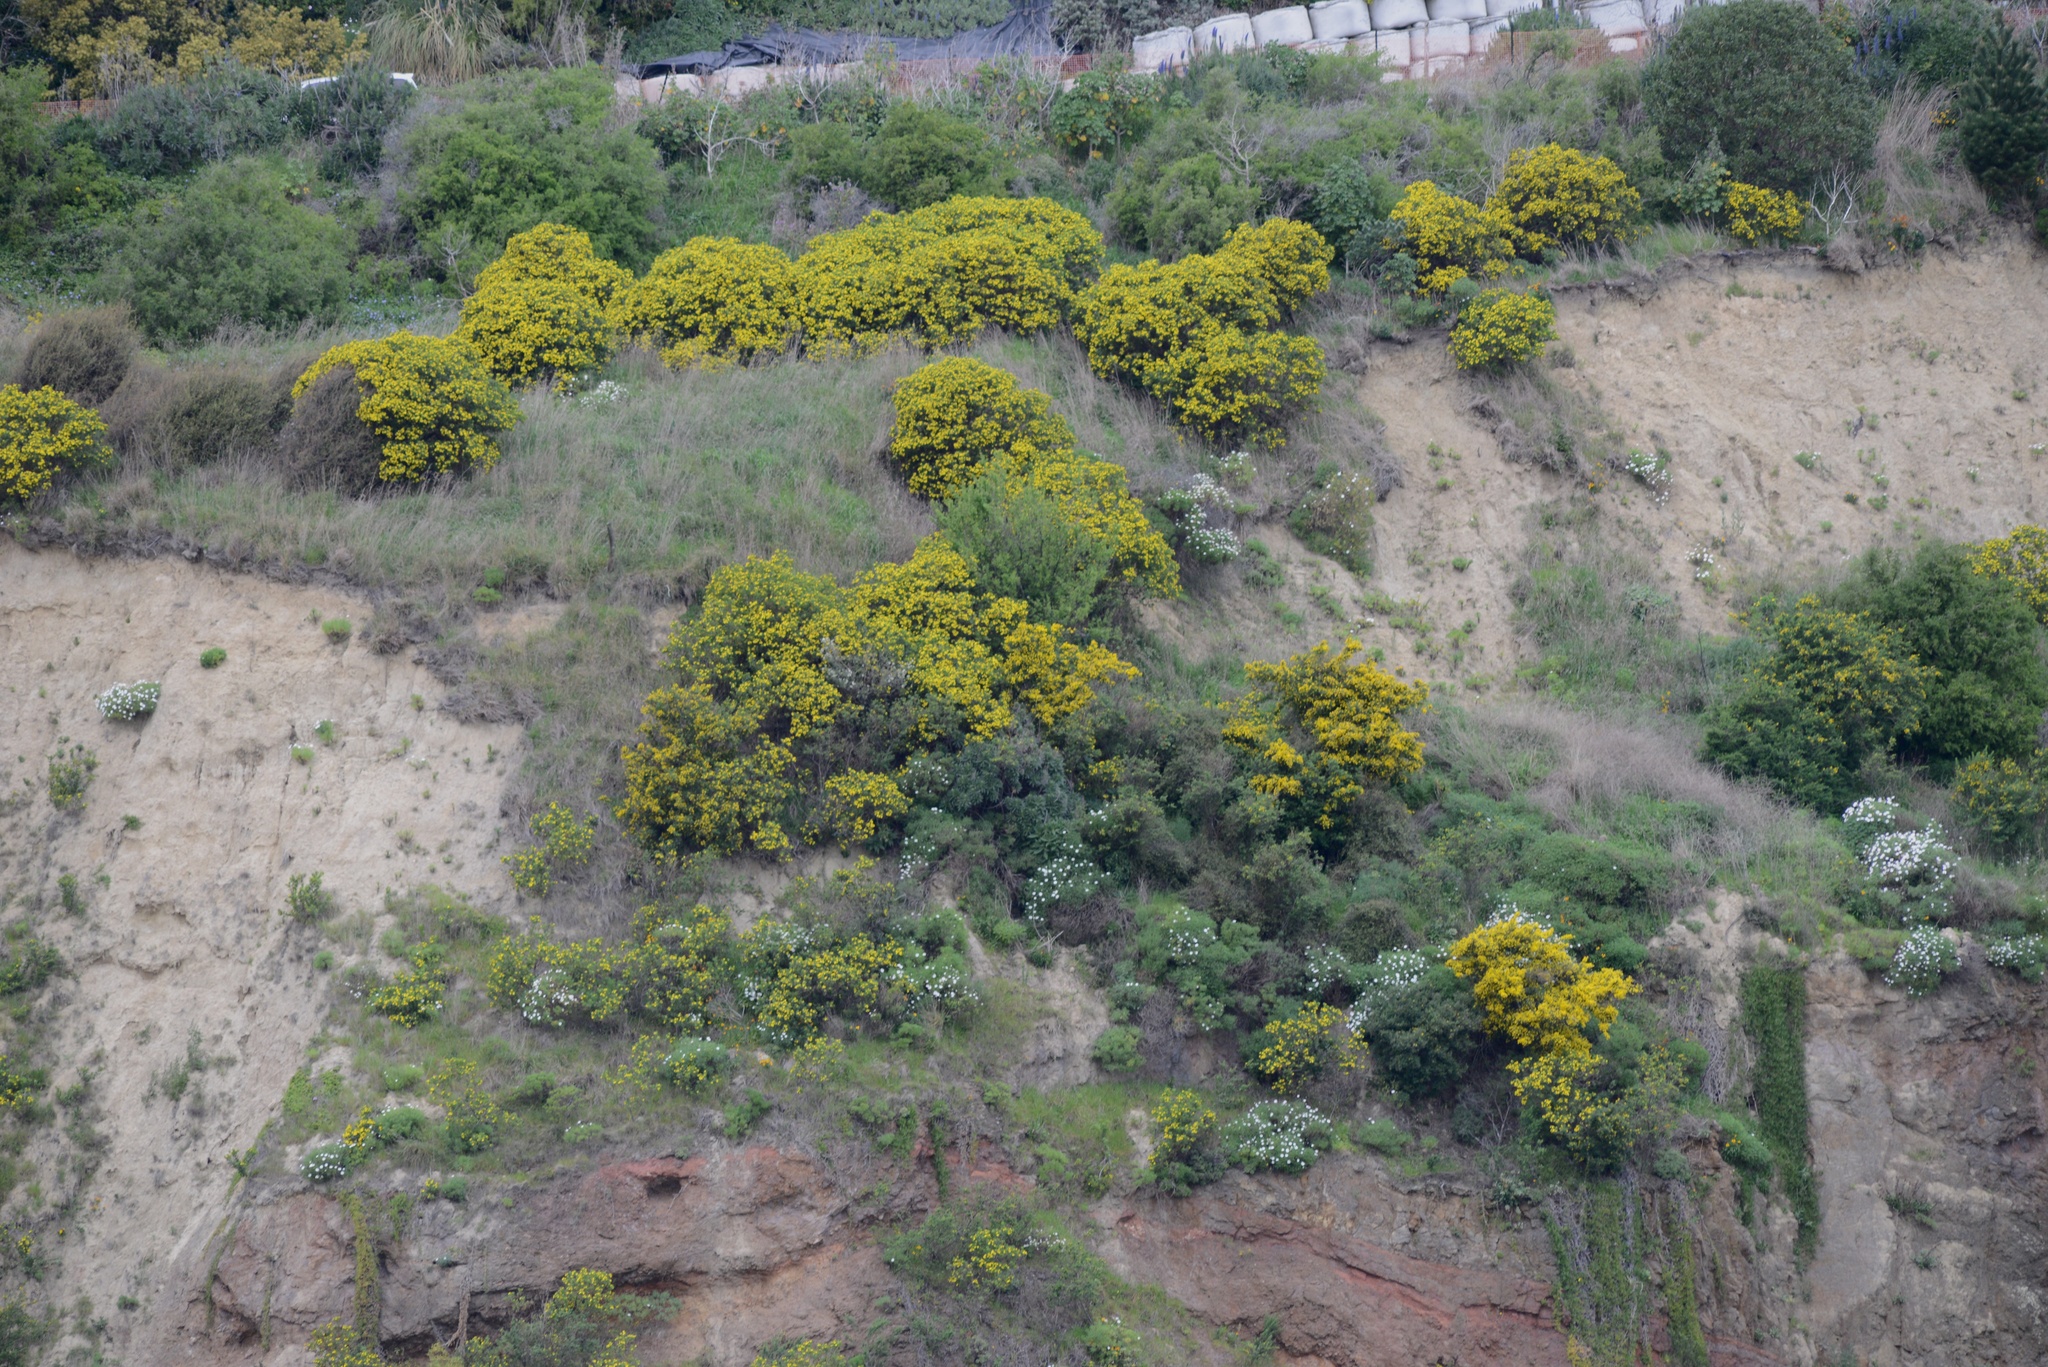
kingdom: Plantae
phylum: Tracheophyta
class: Magnoliopsida
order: Asterales
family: Asteraceae
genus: Osteospermum
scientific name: Osteospermum moniliferum
